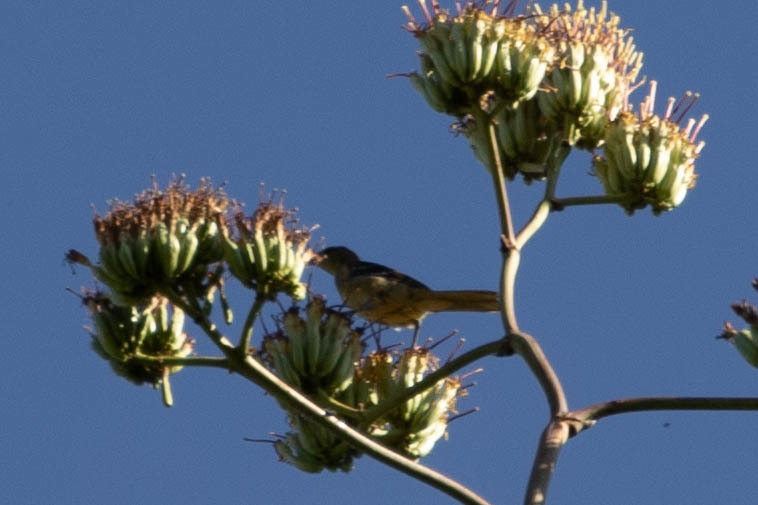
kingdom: Animalia
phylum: Chordata
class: Aves
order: Passeriformes
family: Icteridae
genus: Icterus
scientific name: Icterus
